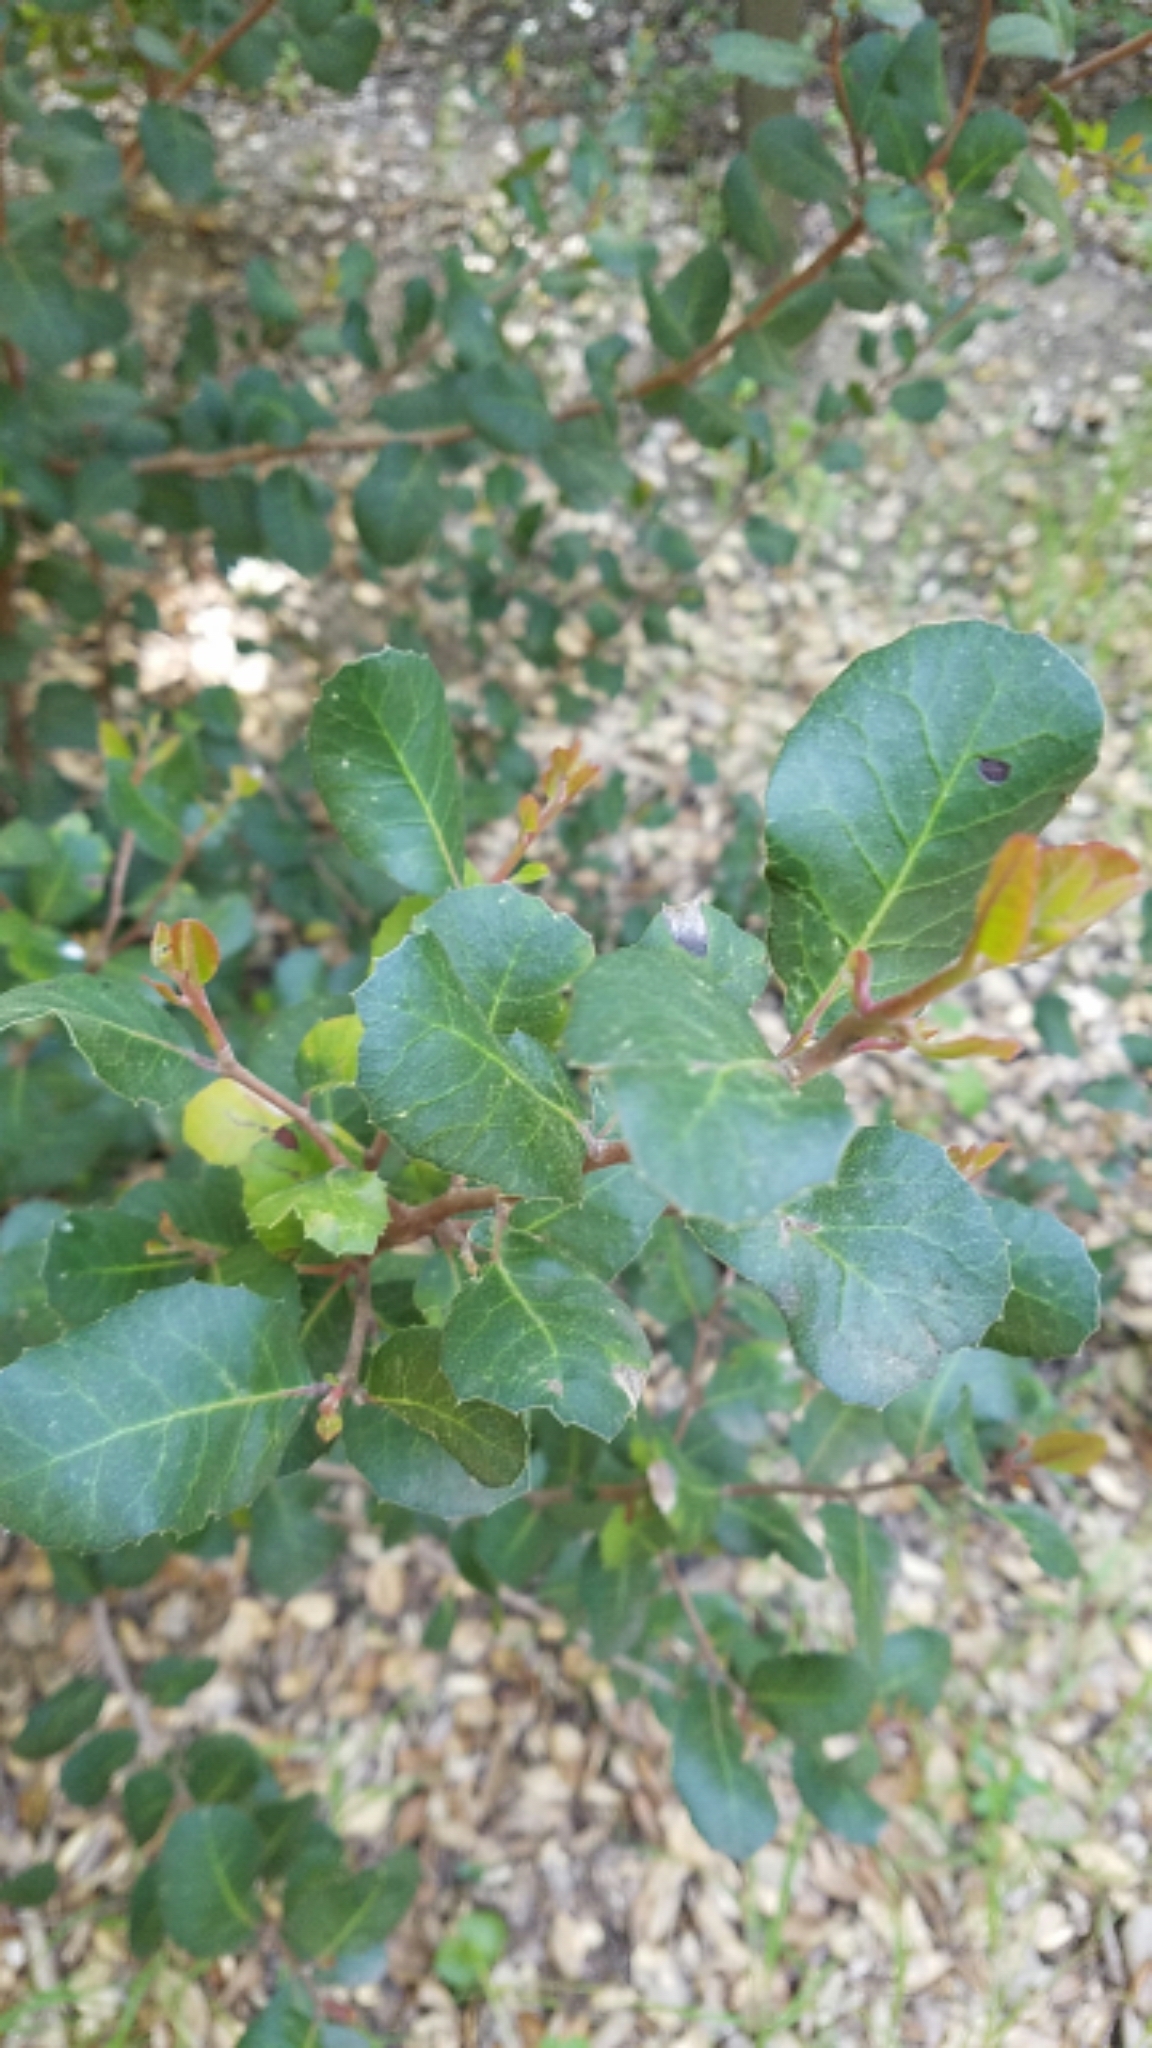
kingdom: Plantae
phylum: Tracheophyta
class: Magnoliopsida
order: Sapindales
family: Anacardiaceae
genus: Rhus
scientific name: Rhus integrifolia
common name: Lemonade sumac
